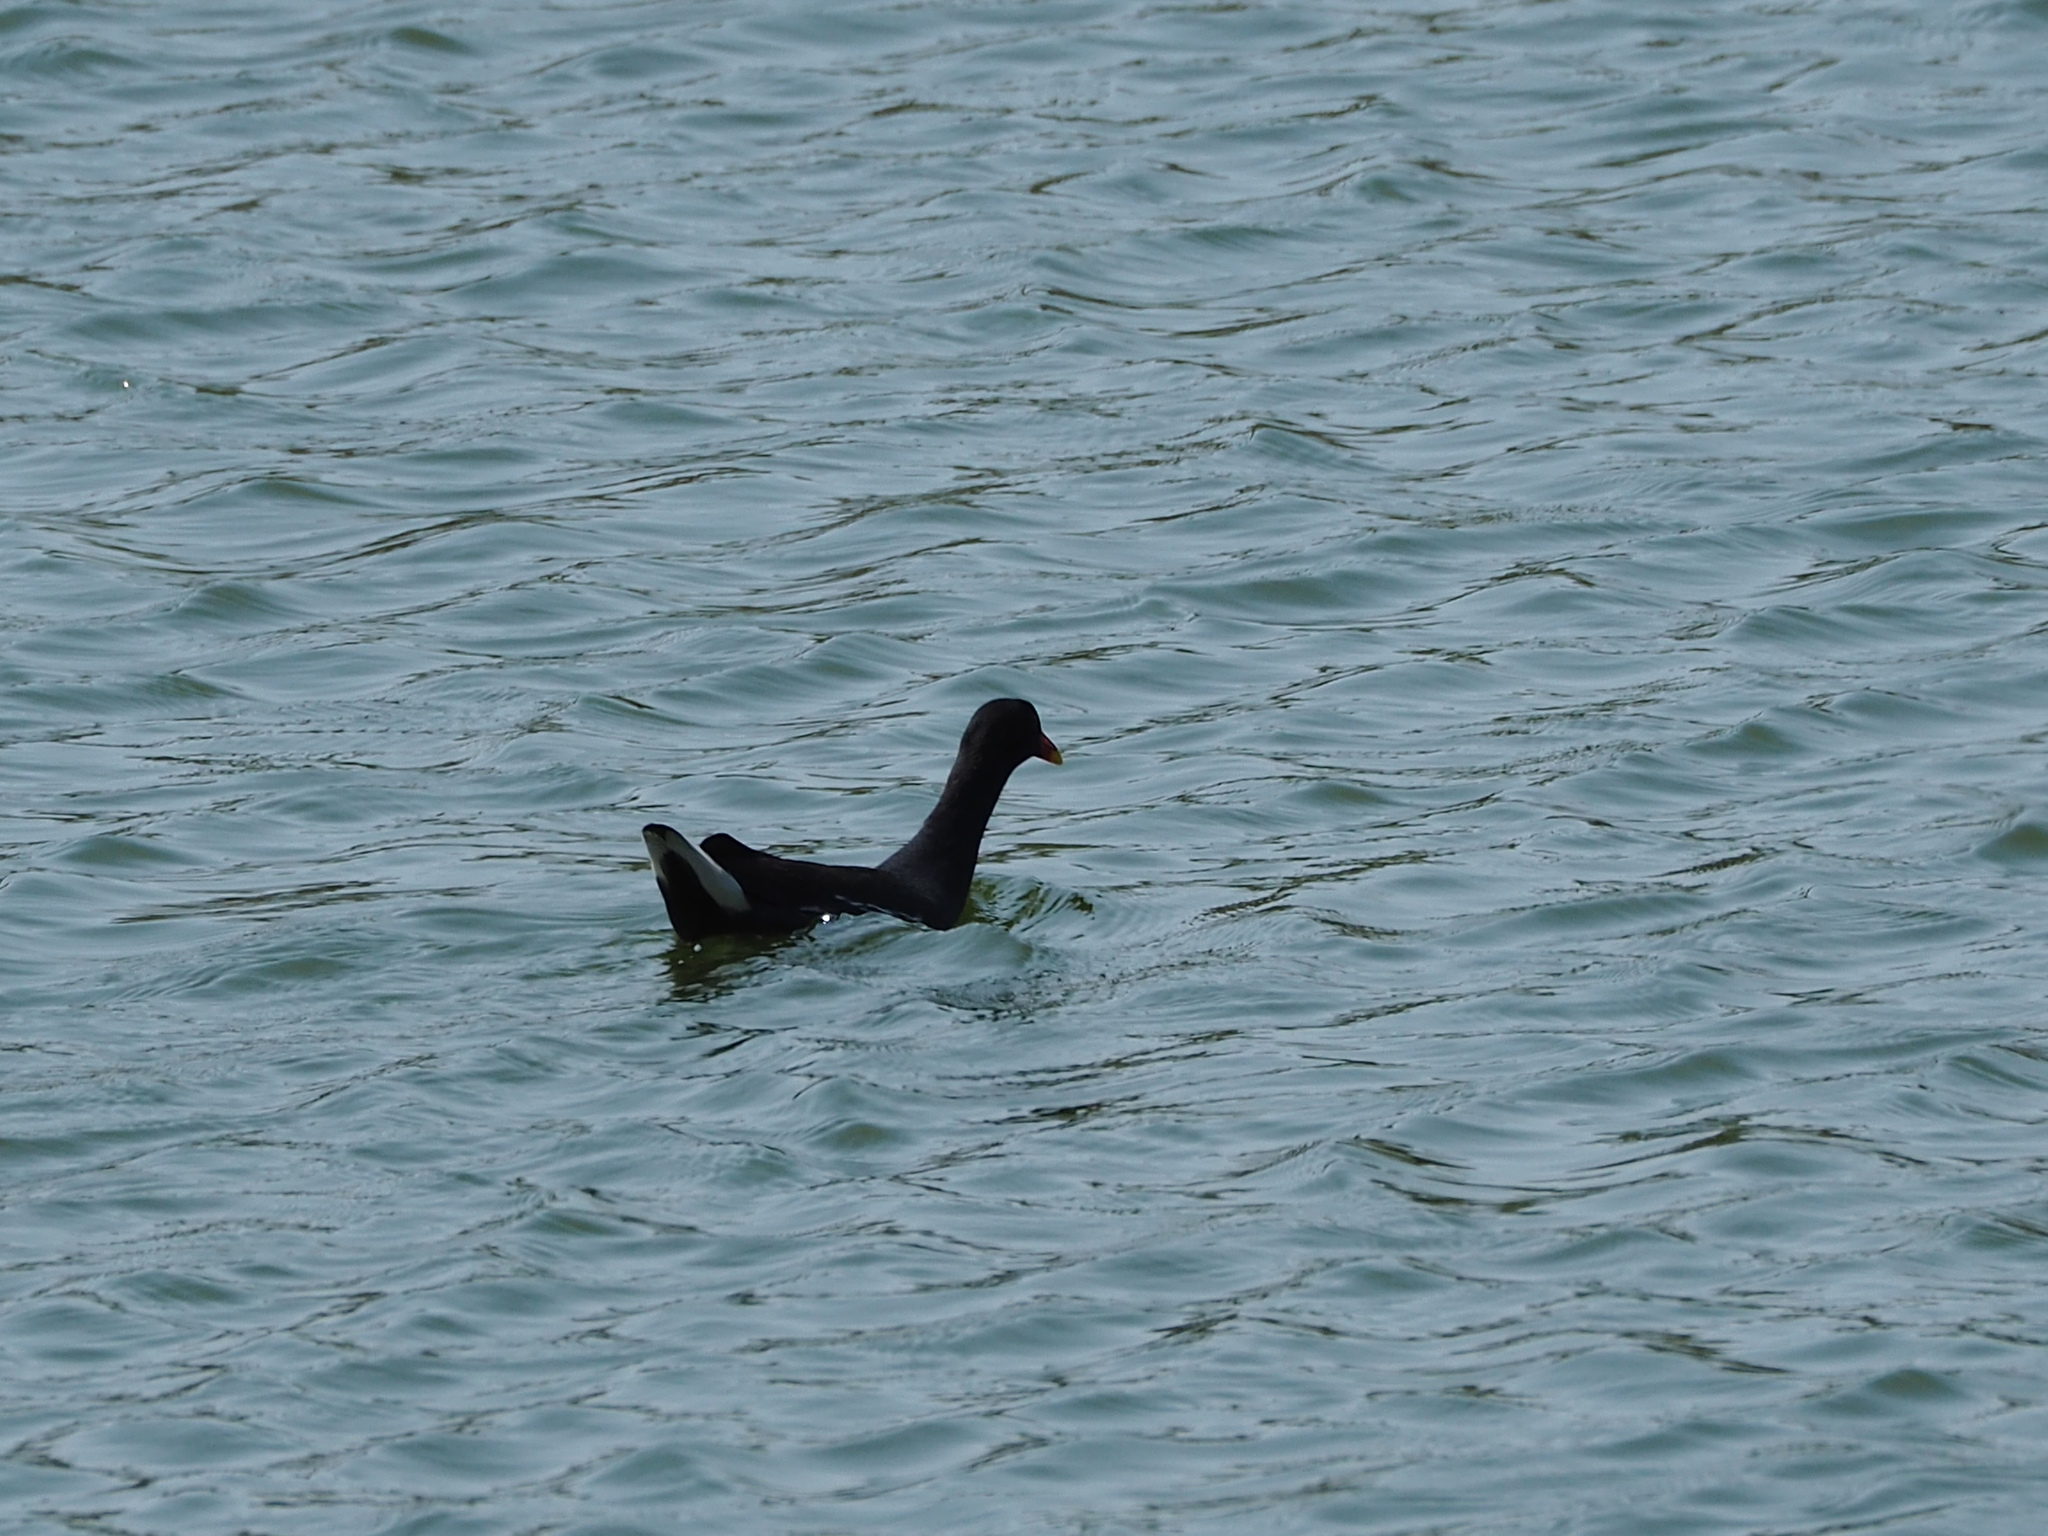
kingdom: Animalia
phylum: Chordata
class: Aves
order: Gruiformes
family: Rallidae
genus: Gallinula
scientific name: Gallinula chloropus
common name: Common moorhen
